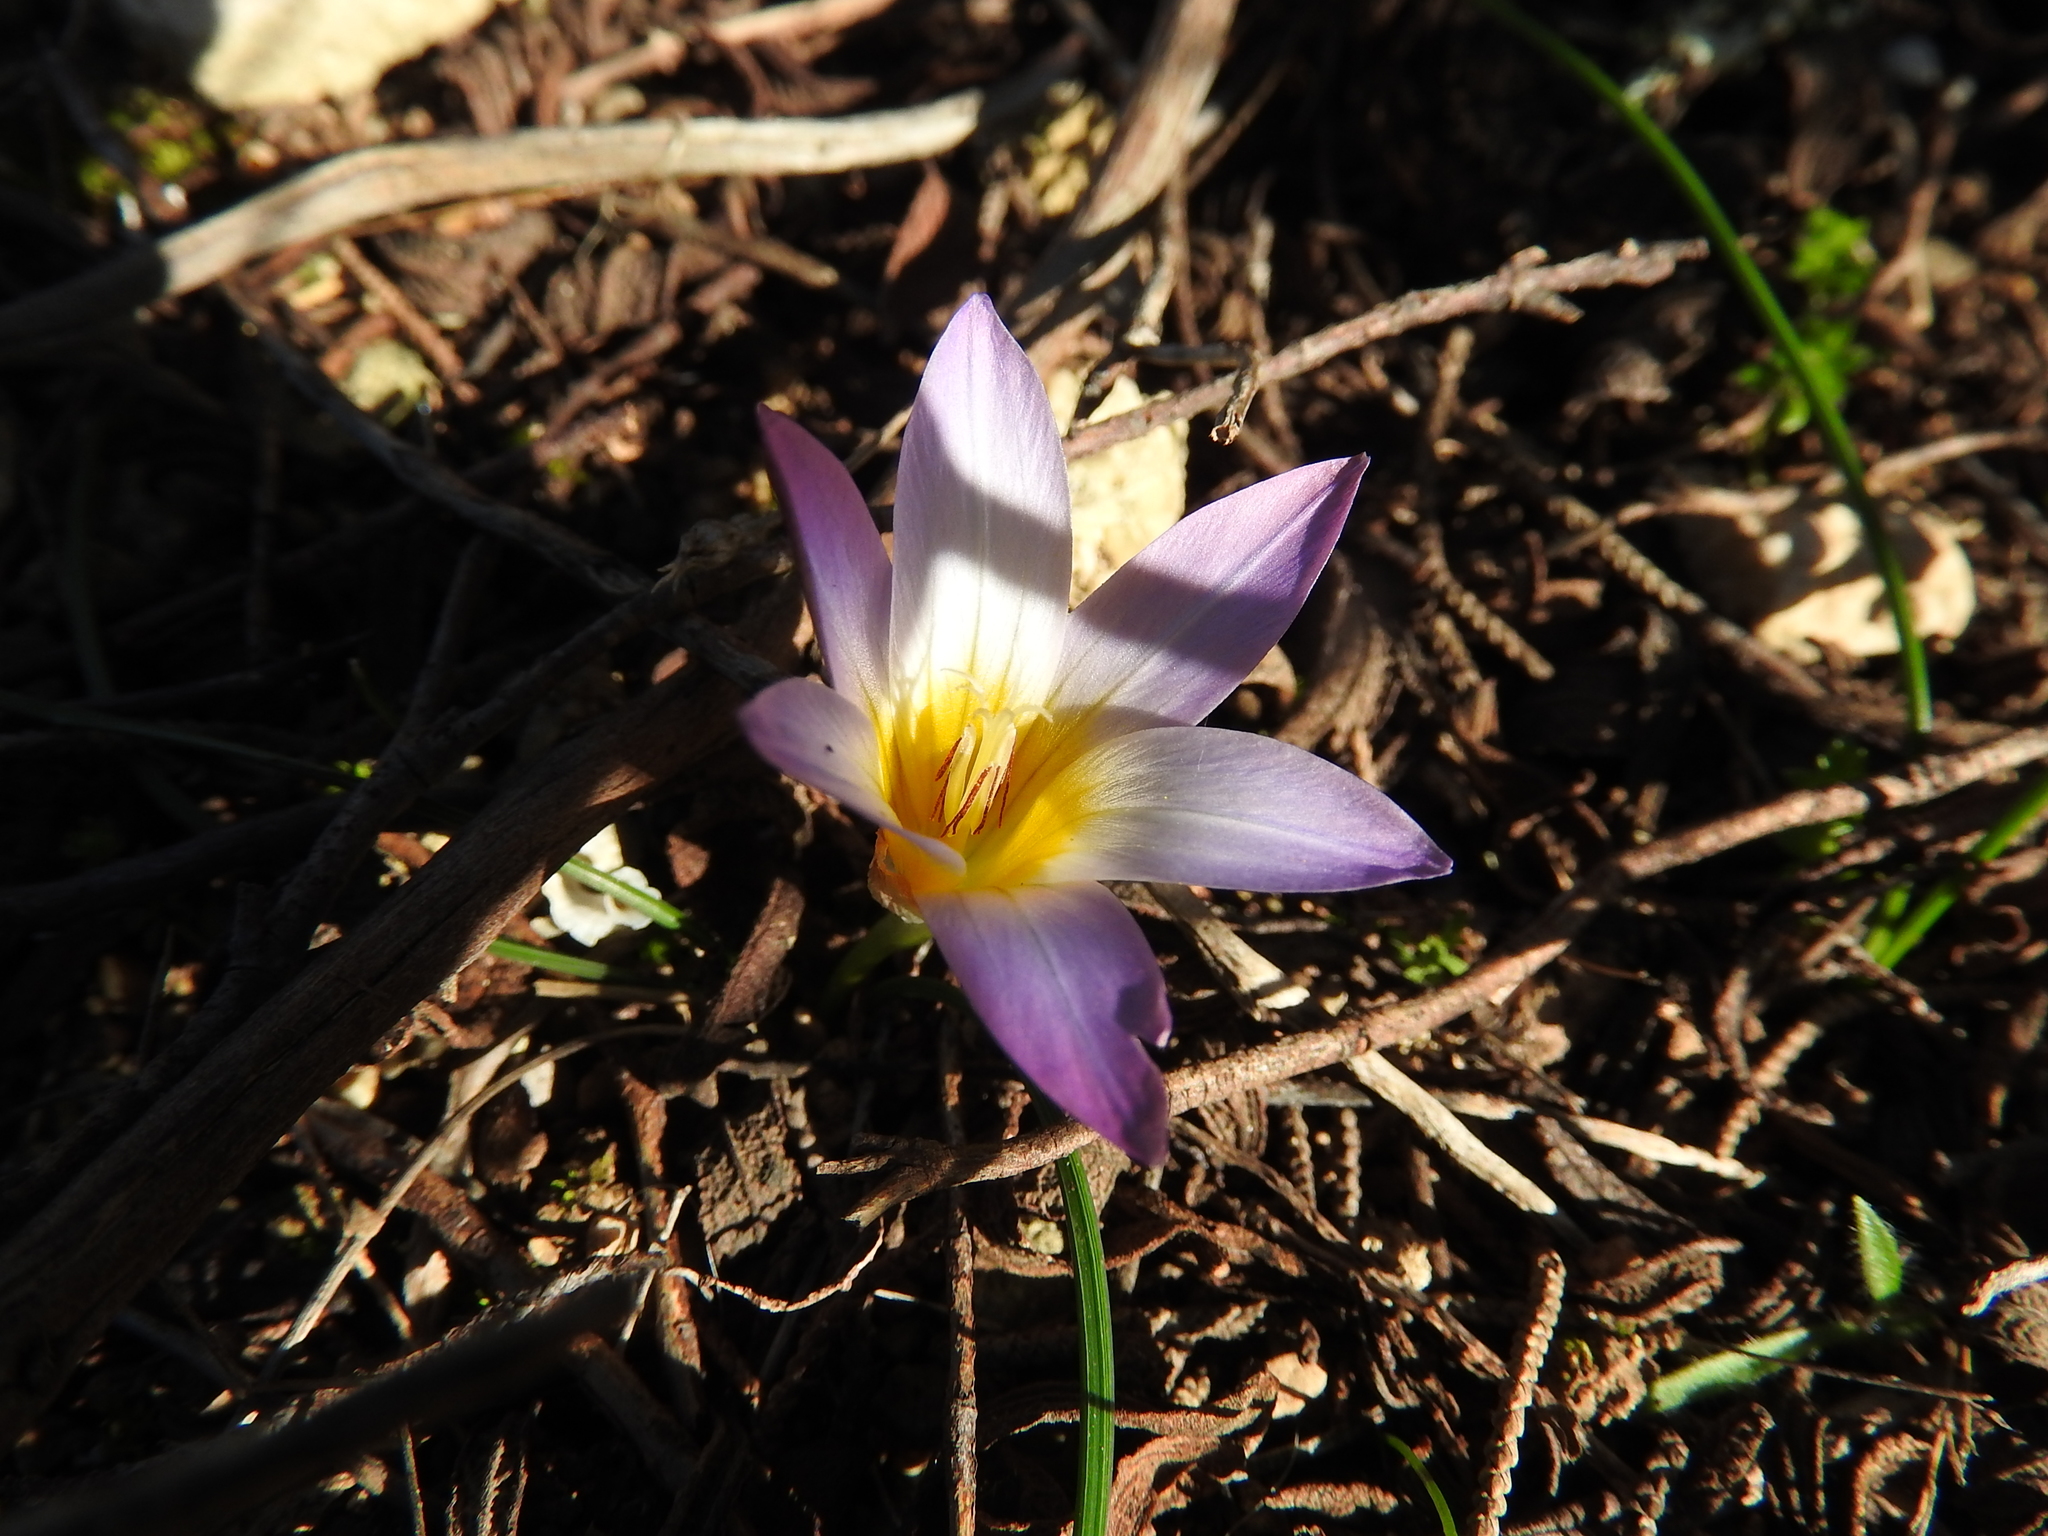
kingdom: Plantae
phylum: Tracheophyta
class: Liliopsida
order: Asparagales
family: Iridaceae
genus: Romulea
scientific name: Romulea bulbocodium
